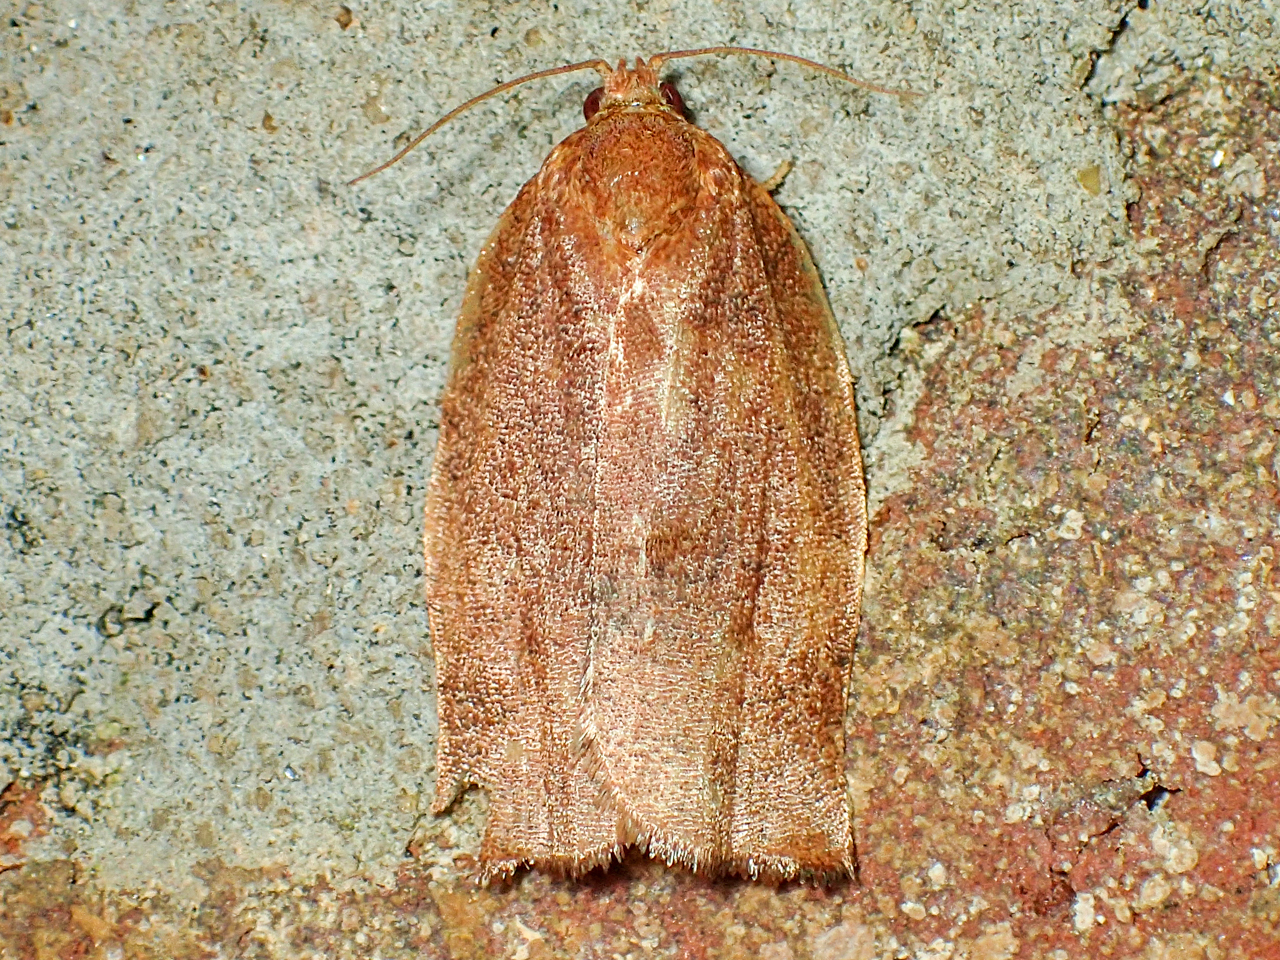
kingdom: Animalia
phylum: Arthropoda
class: Insecta
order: Lepidoptera
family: Tortricidae
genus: Choristoneura
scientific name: Choristoneura rosaceana
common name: Oblique-banded leafroller moth
